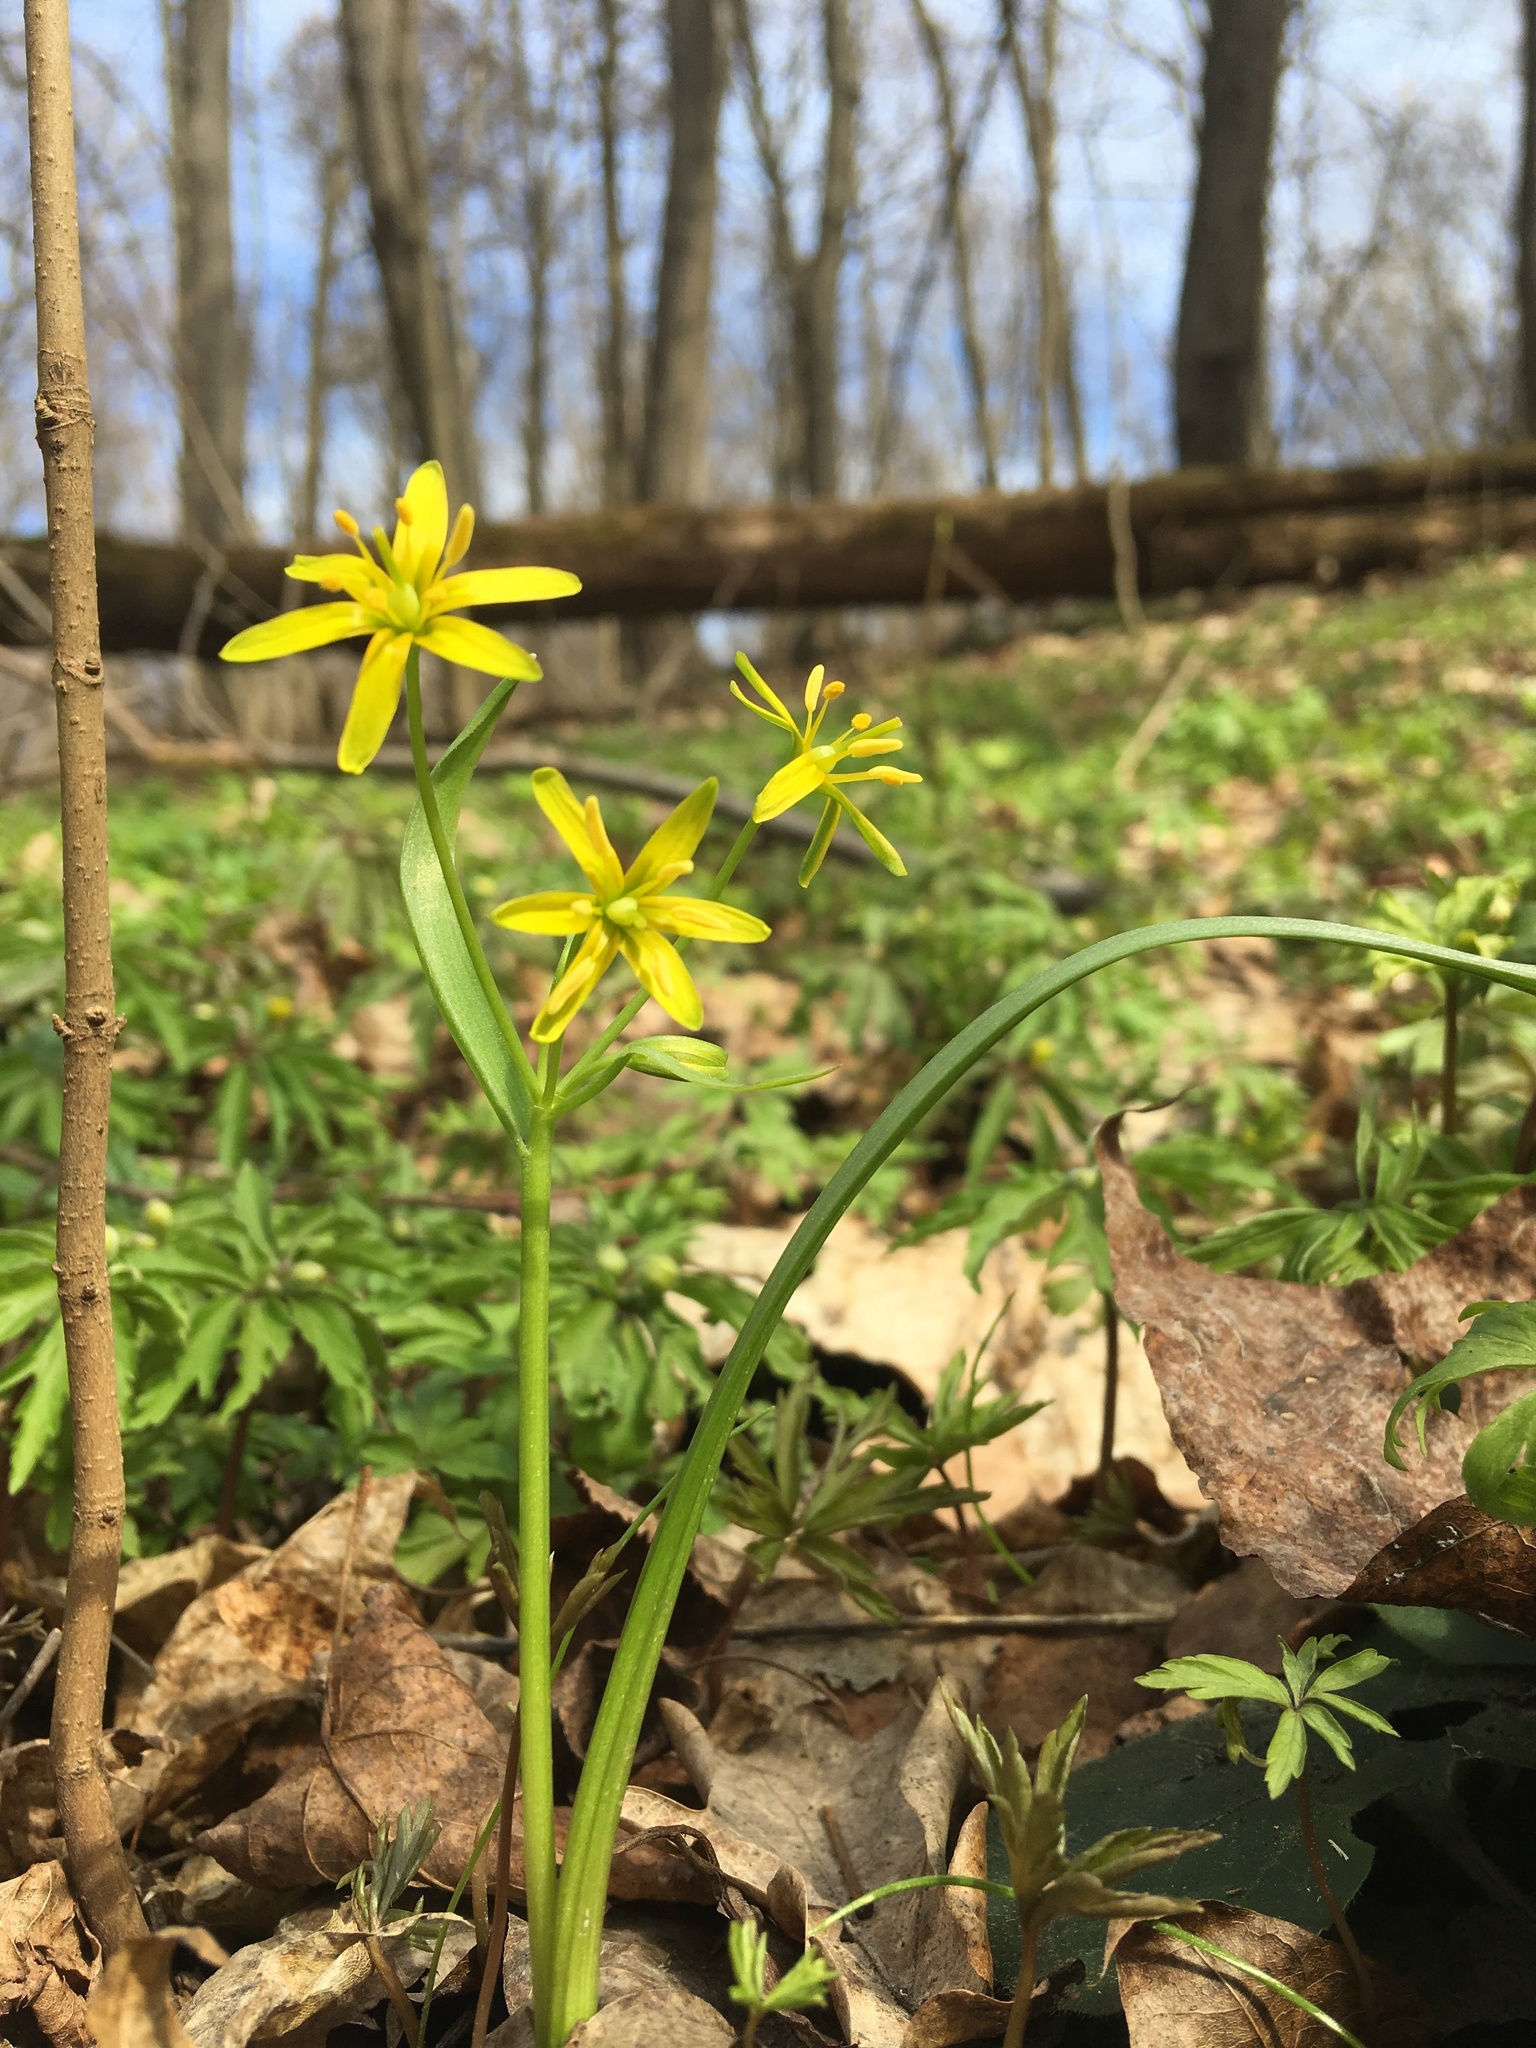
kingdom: Plantae
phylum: Tracheophyta
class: Liliopsida
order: Liliales
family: Liliaceae
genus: Gagea
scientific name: Gagea lutea
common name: Yellow star-of-bethlehem
